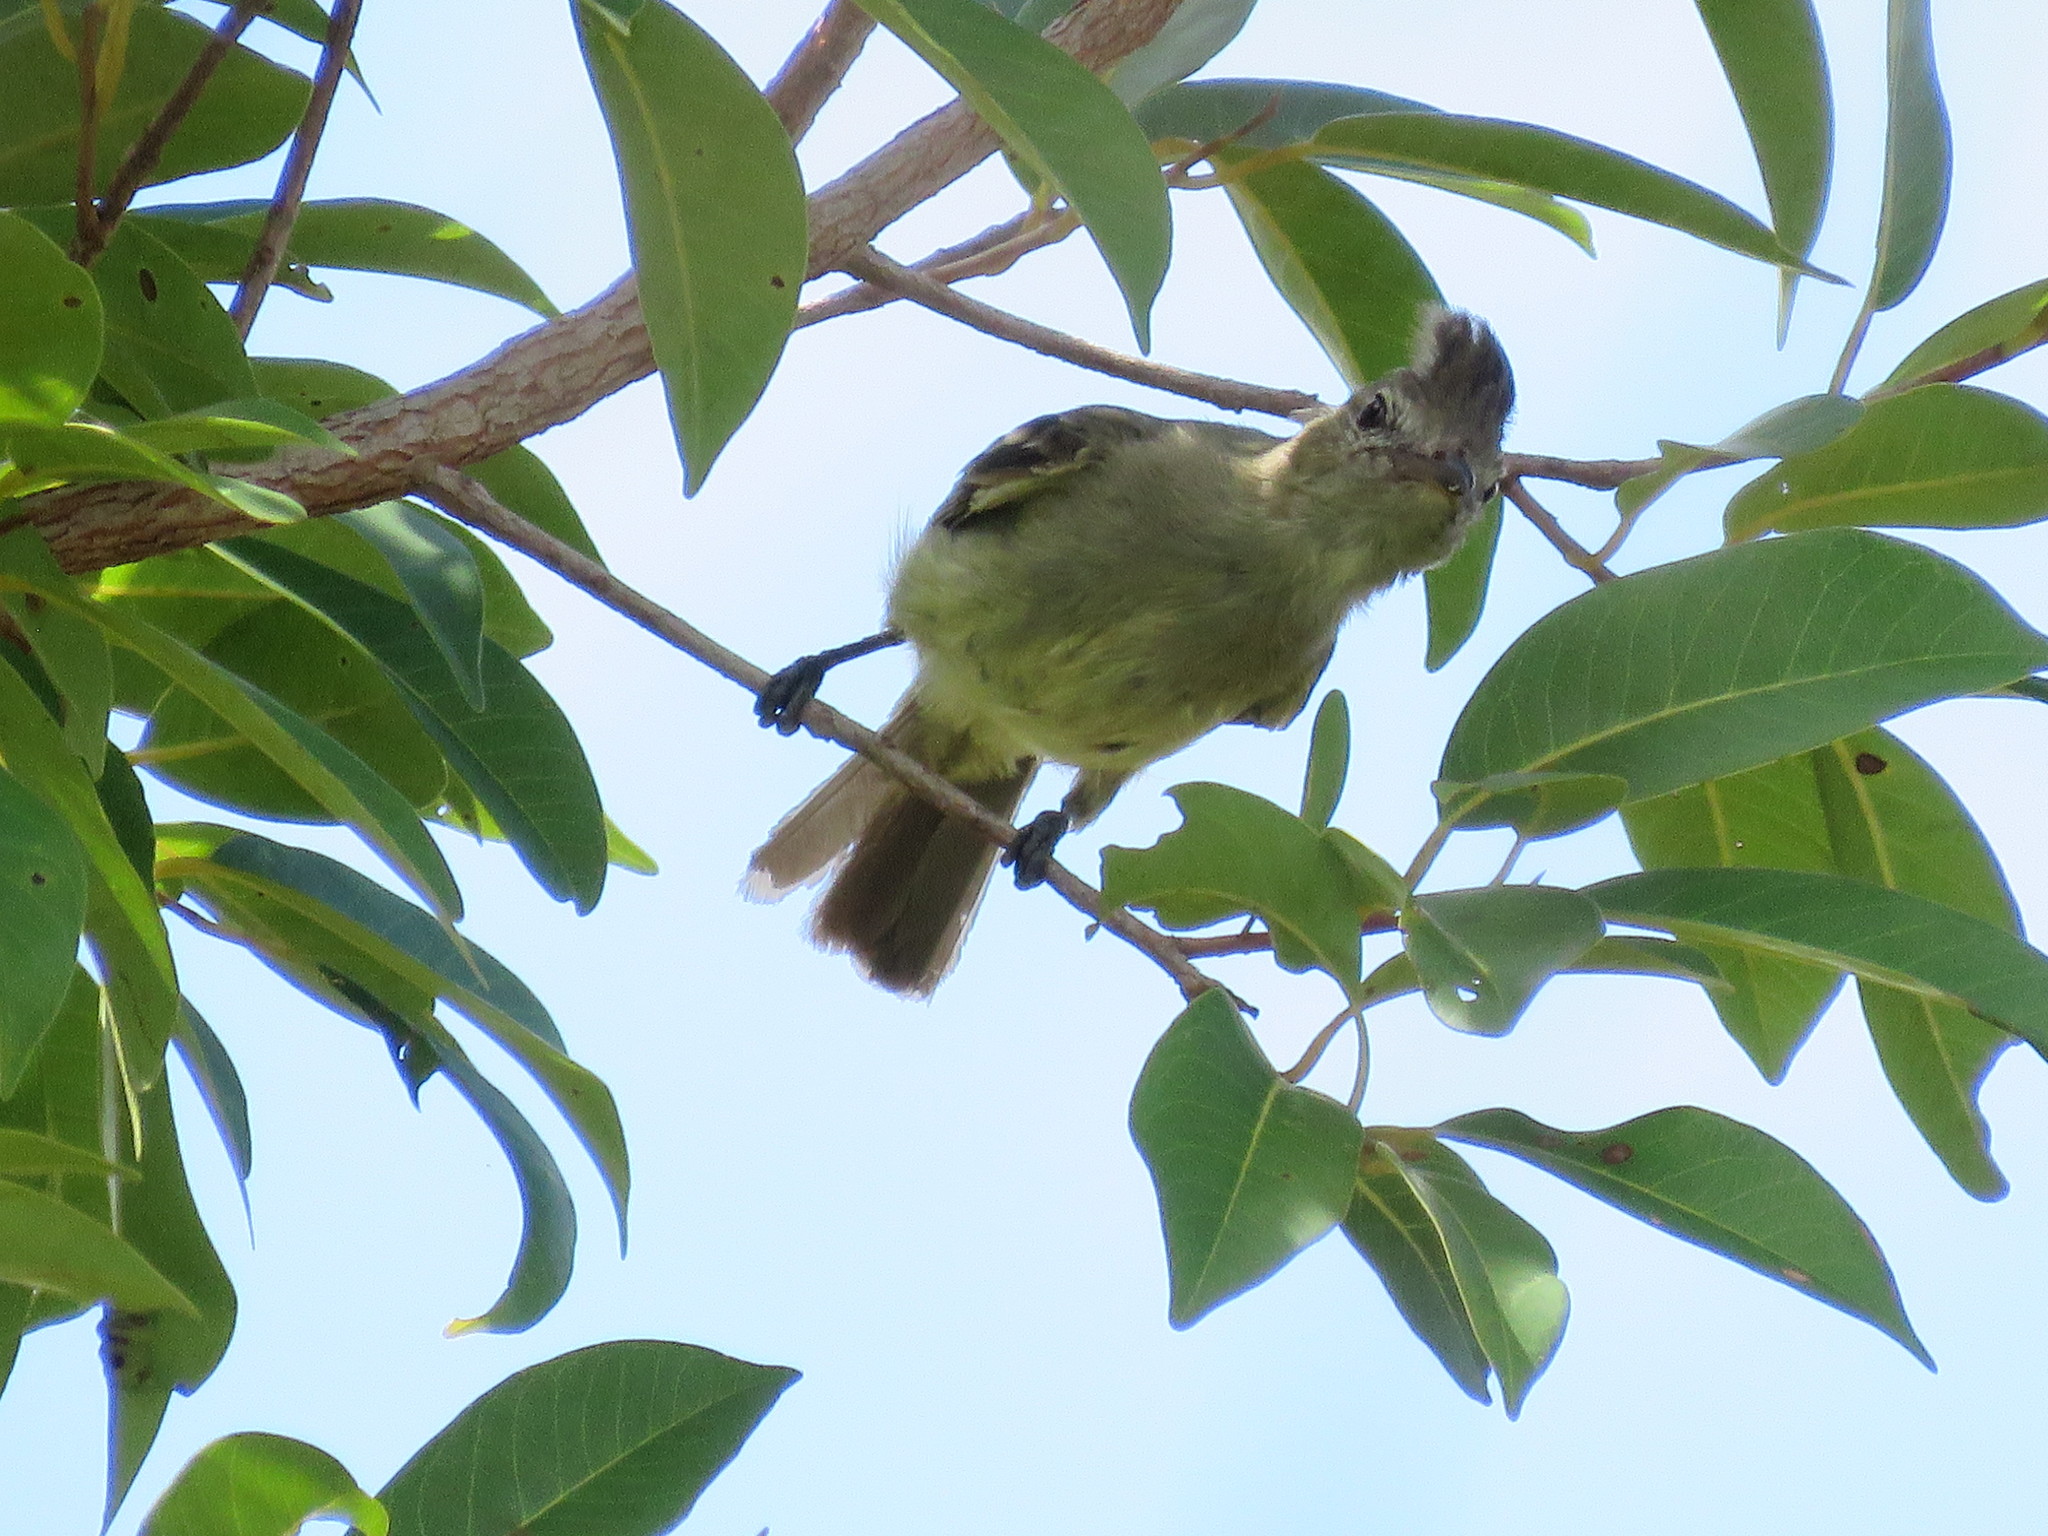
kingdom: Animalia
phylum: Chordata
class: Aves
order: Passeriformes
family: Tyrannidae
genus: Elaenia
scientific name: Elaenia cristata
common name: Plain-crested elaenia
